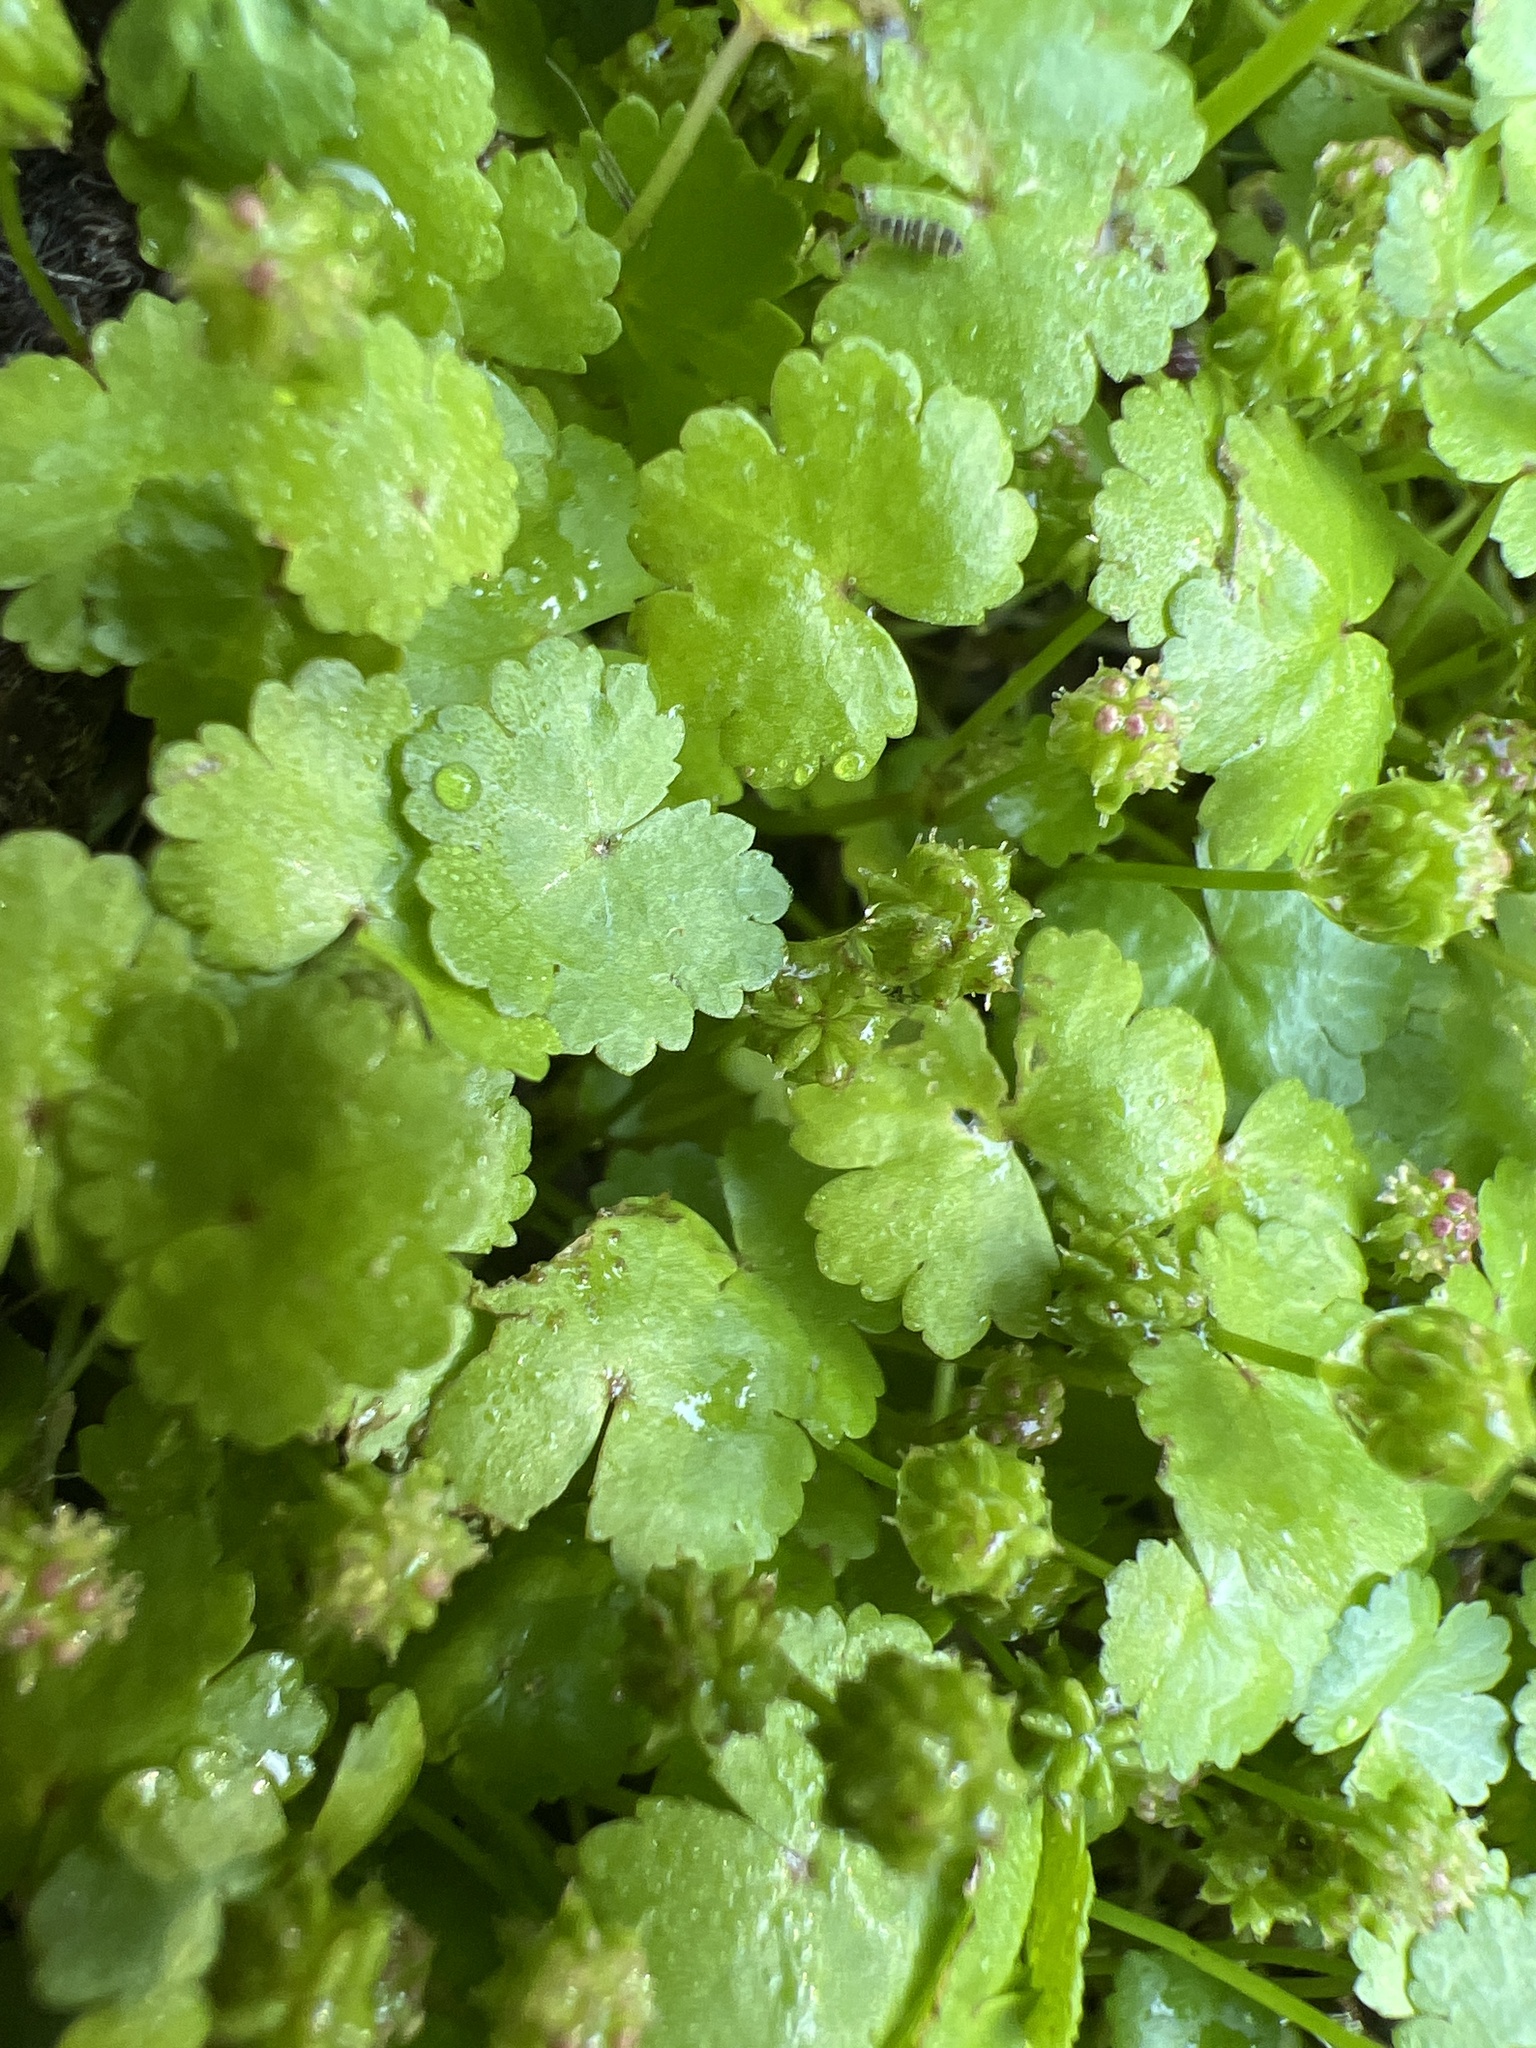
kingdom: Plantae
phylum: Tracheophyta
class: Magnoliopsida
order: Apiales
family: Araliaceae
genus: Hydrocotyle
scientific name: Hydrocotyle sibthorpioides
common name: Lawn marshpennywort
